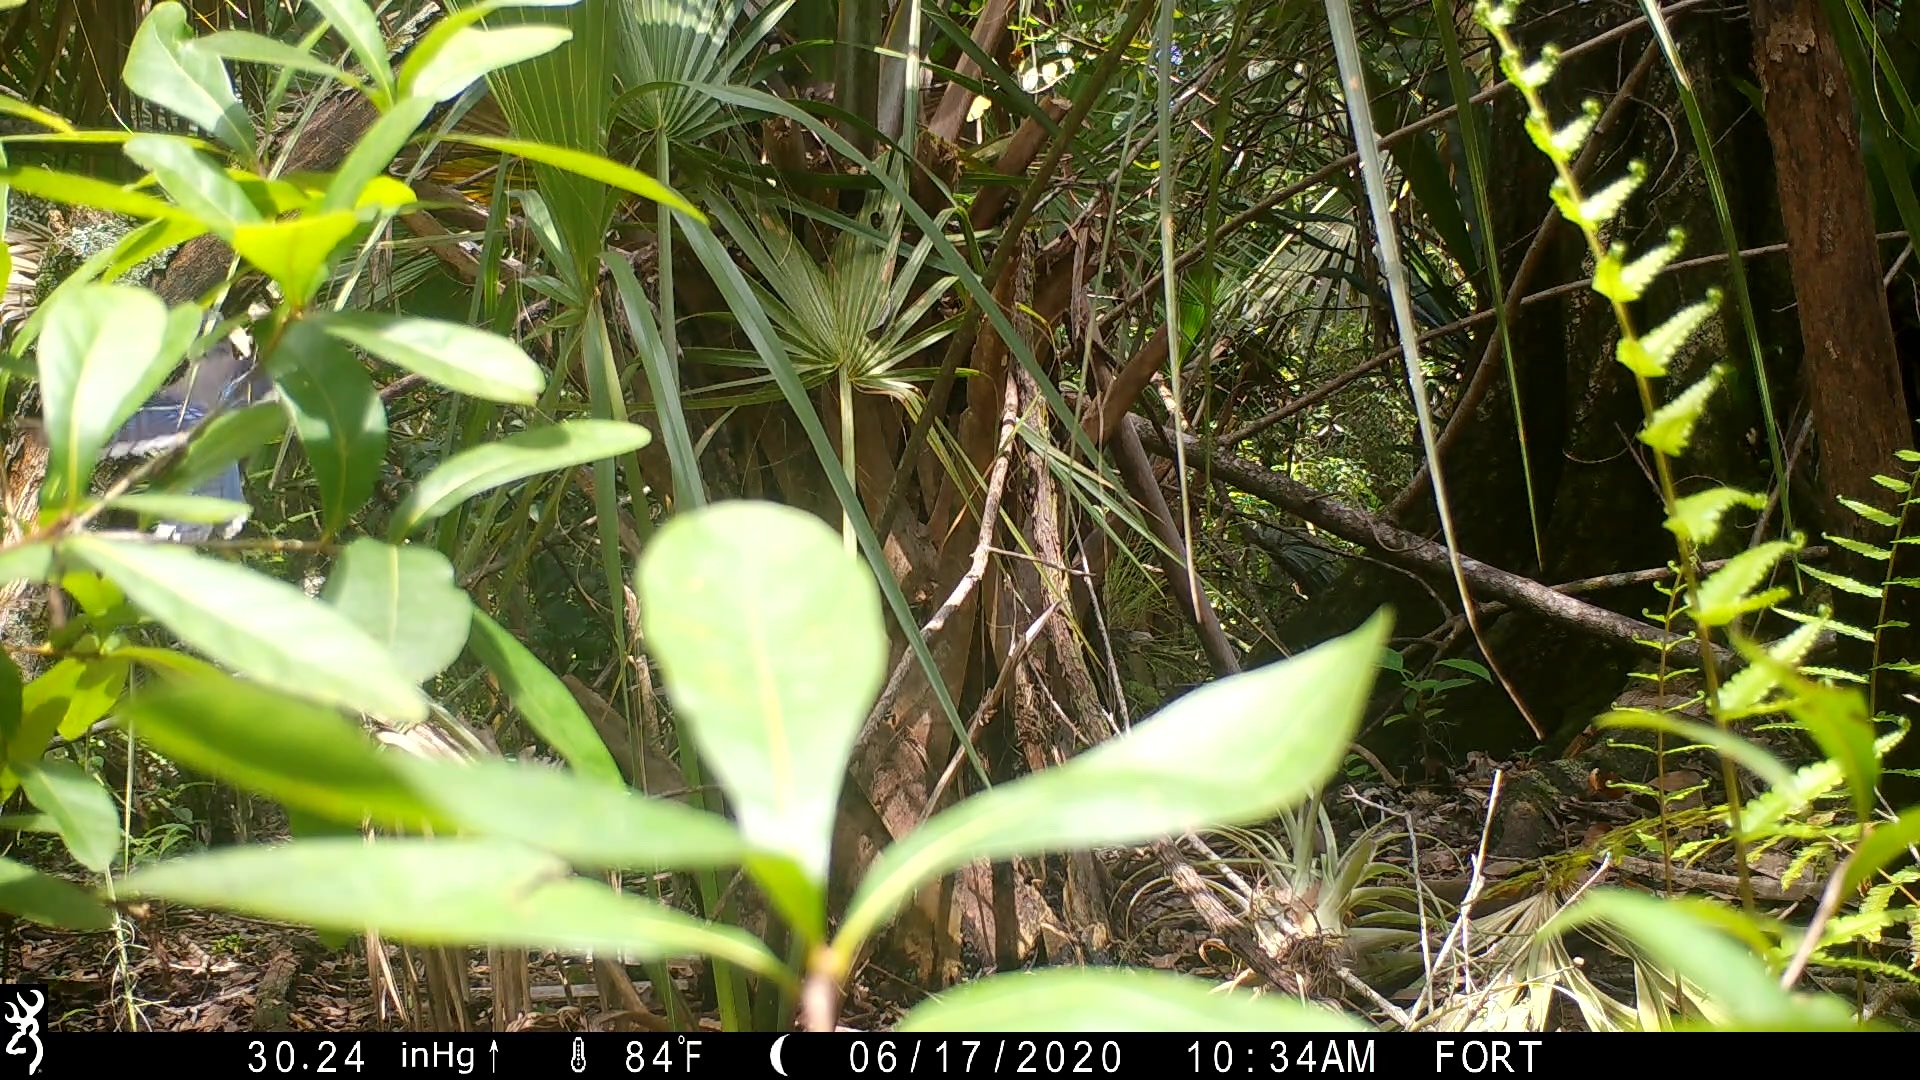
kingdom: Animalia
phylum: Chordata
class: Aves
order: Passeriformes
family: Corvidae
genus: Cyanocitta
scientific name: Cyanocitta cristata
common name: Blue jay
